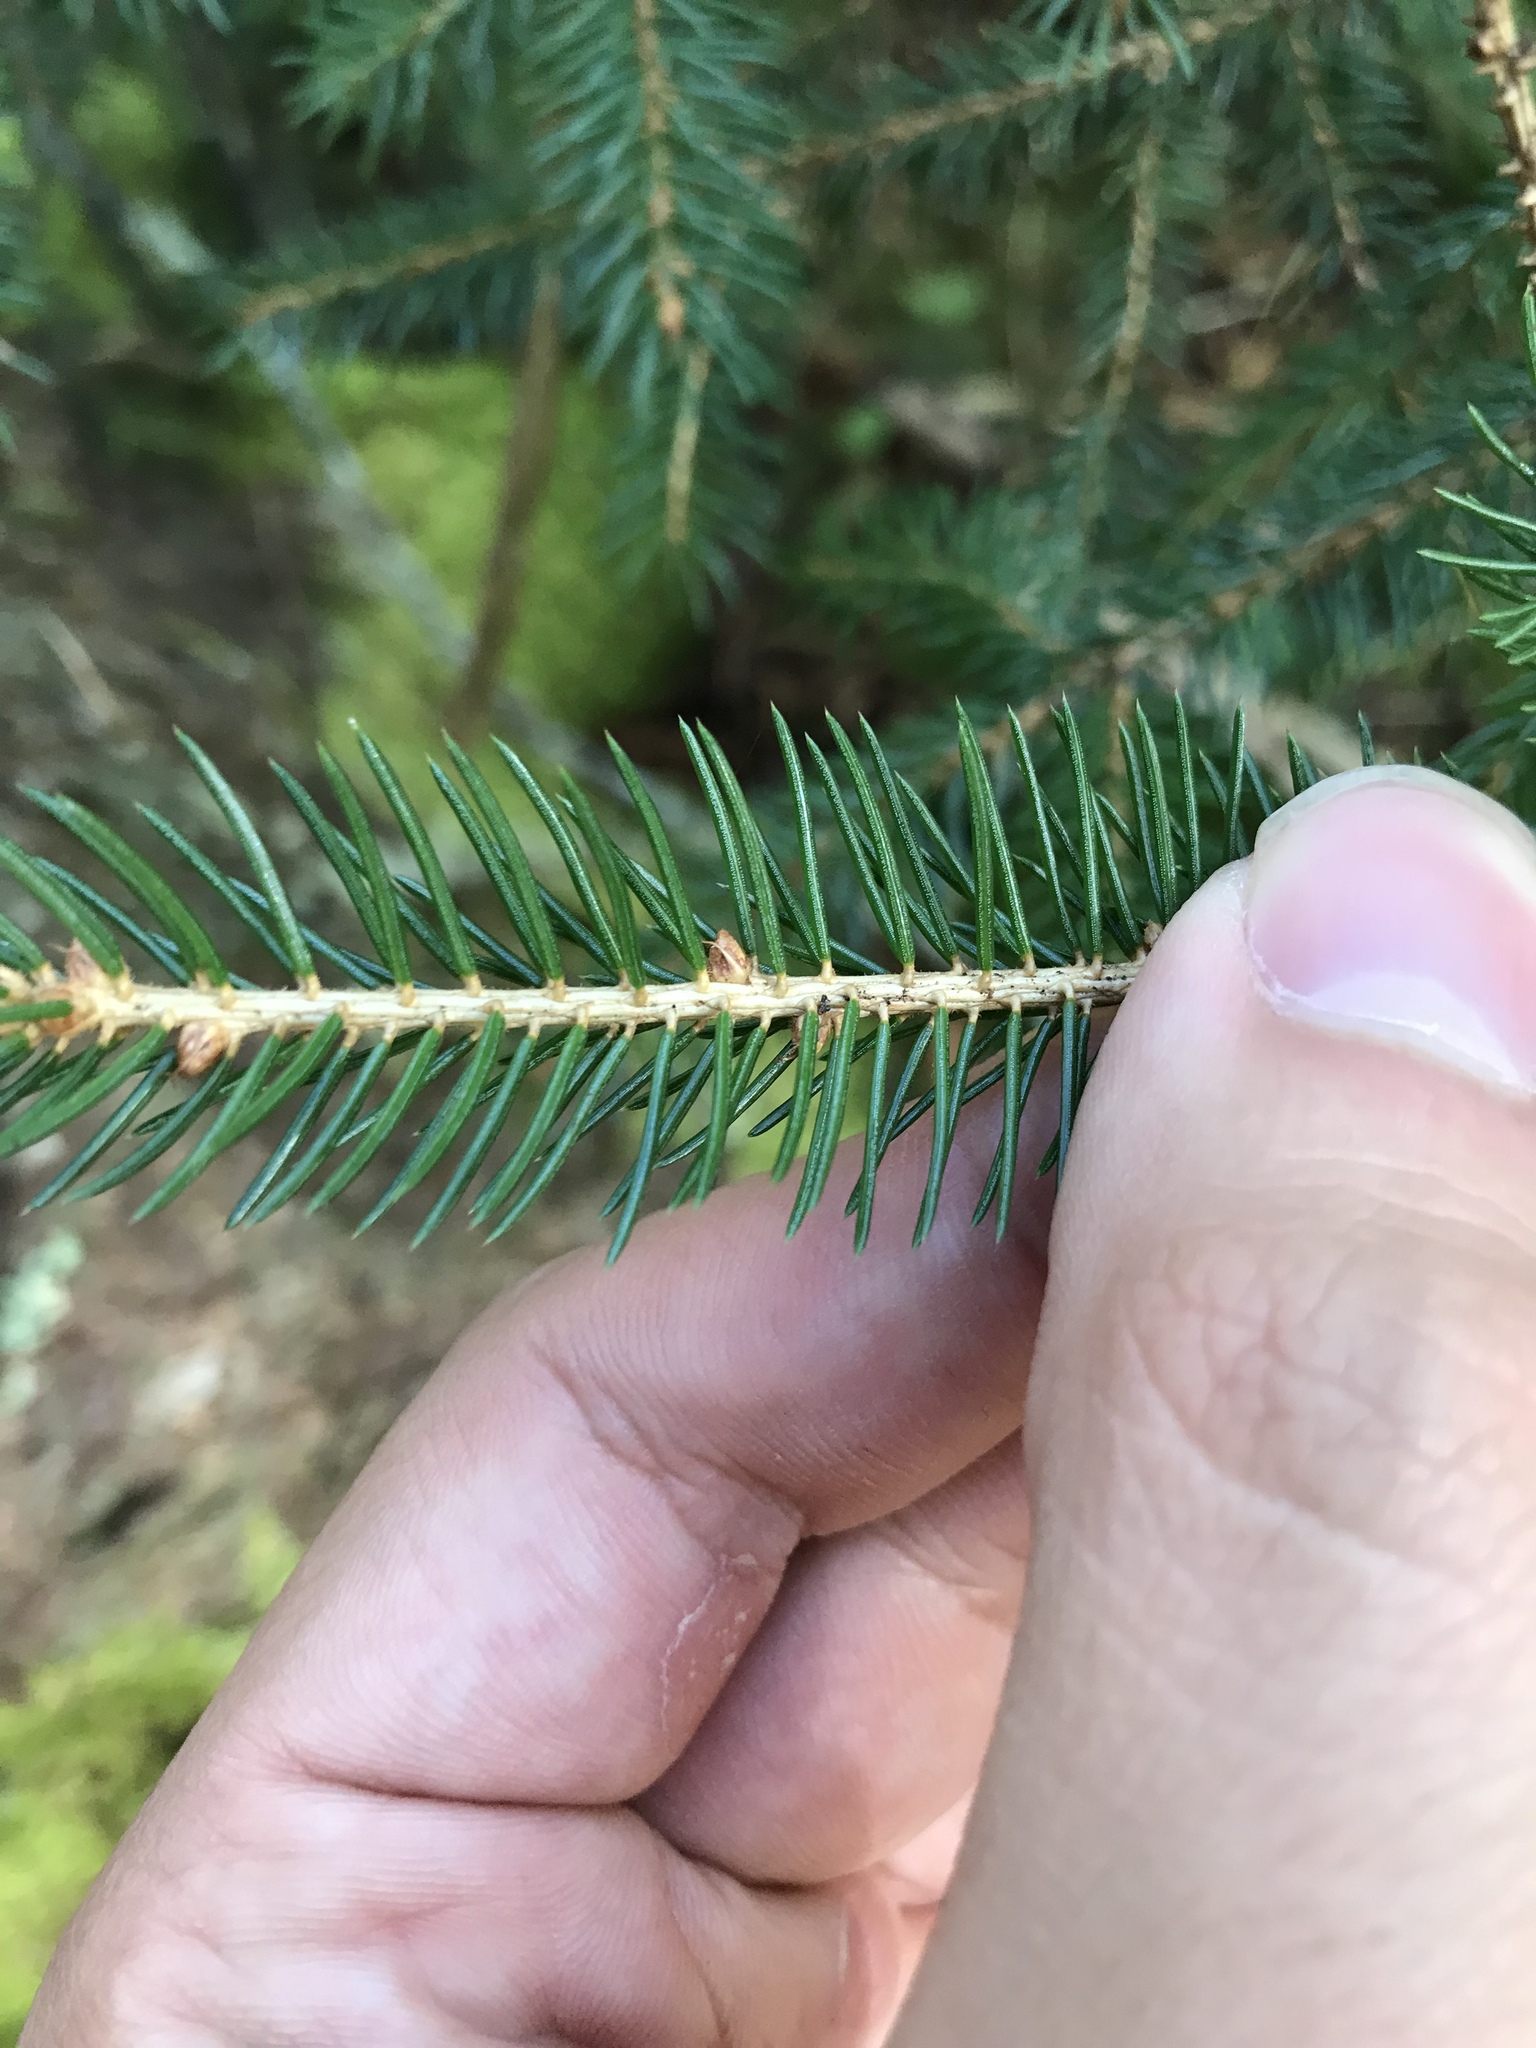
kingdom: Plantae
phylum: Tracheophyta
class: Pinopsida
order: Pinales
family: Pinaceae
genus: Picea
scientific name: Picea rubens
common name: Red spruce
